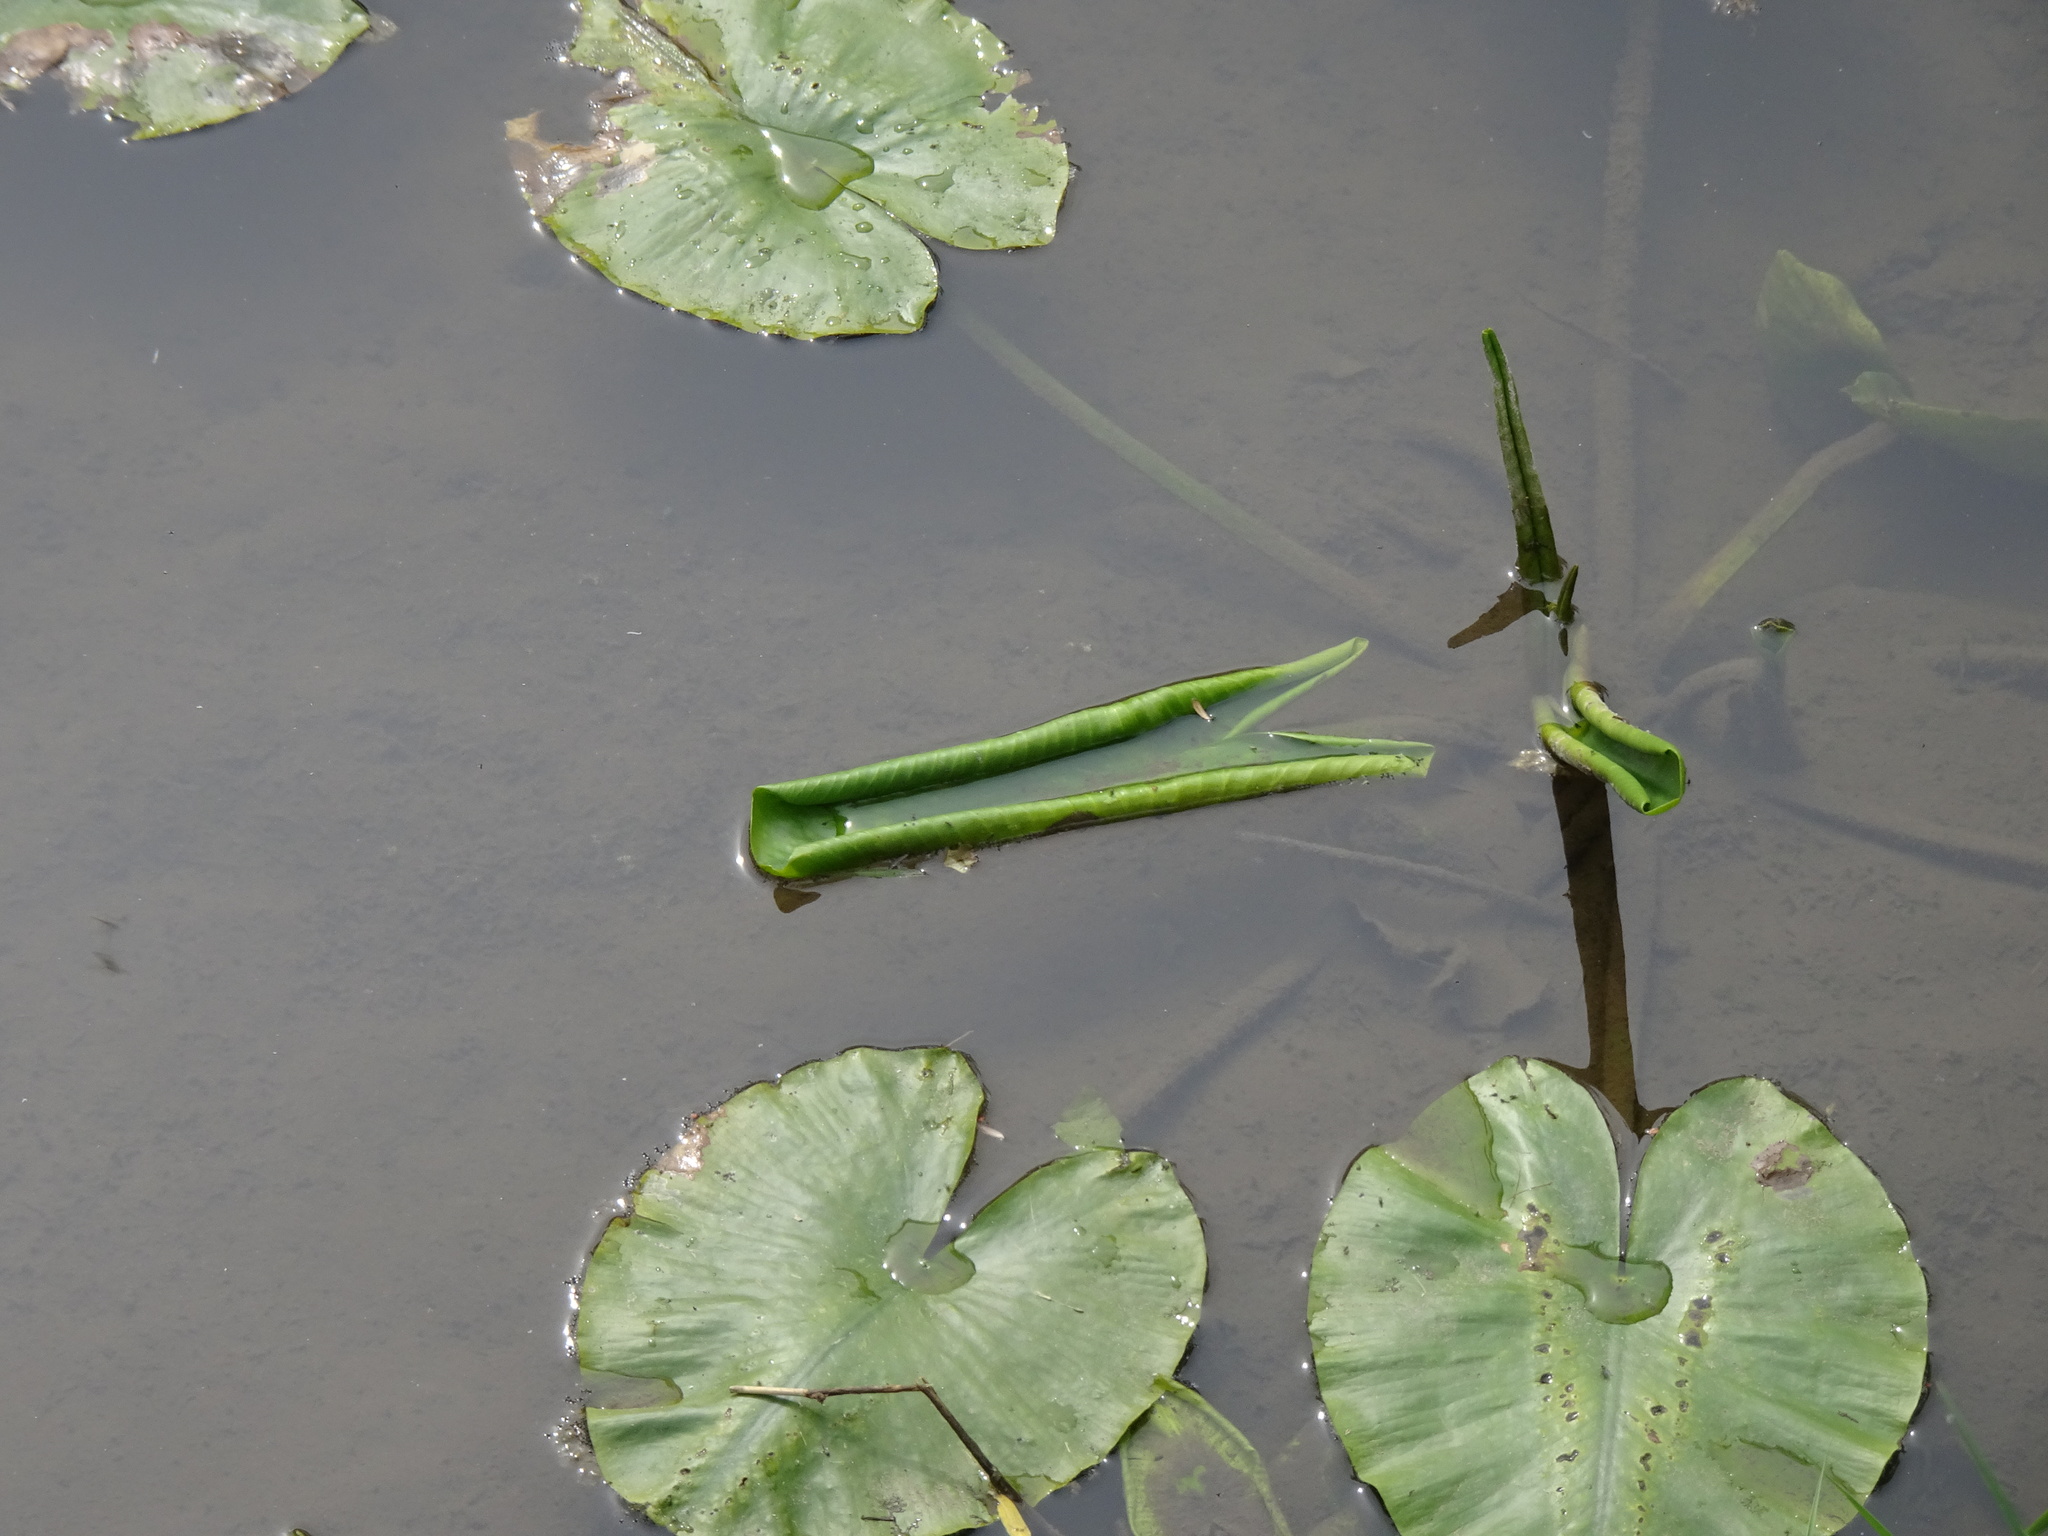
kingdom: Plantae
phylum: Tracheophyta
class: Magnoliopsida
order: Nymphaeales
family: Nymphaeaceae
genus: Nuphar
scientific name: Nuphar lutea
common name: Yellow water-lily
